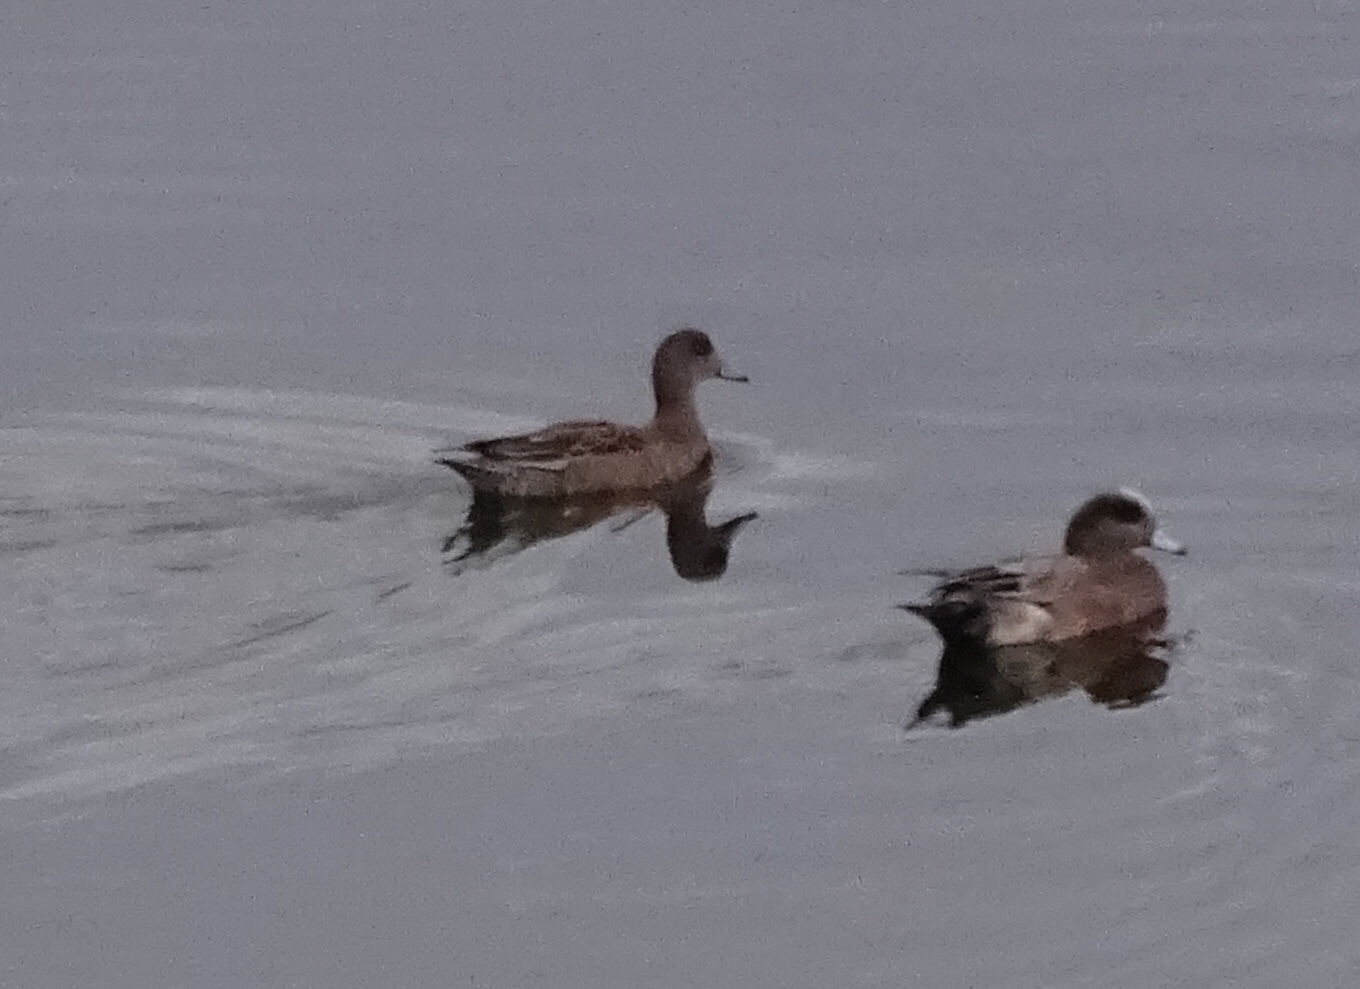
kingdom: Animalia
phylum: Chordata
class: Aves
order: Anseriformes
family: Anatidae
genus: Mareca
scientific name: Mareca americana
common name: American wigeon
